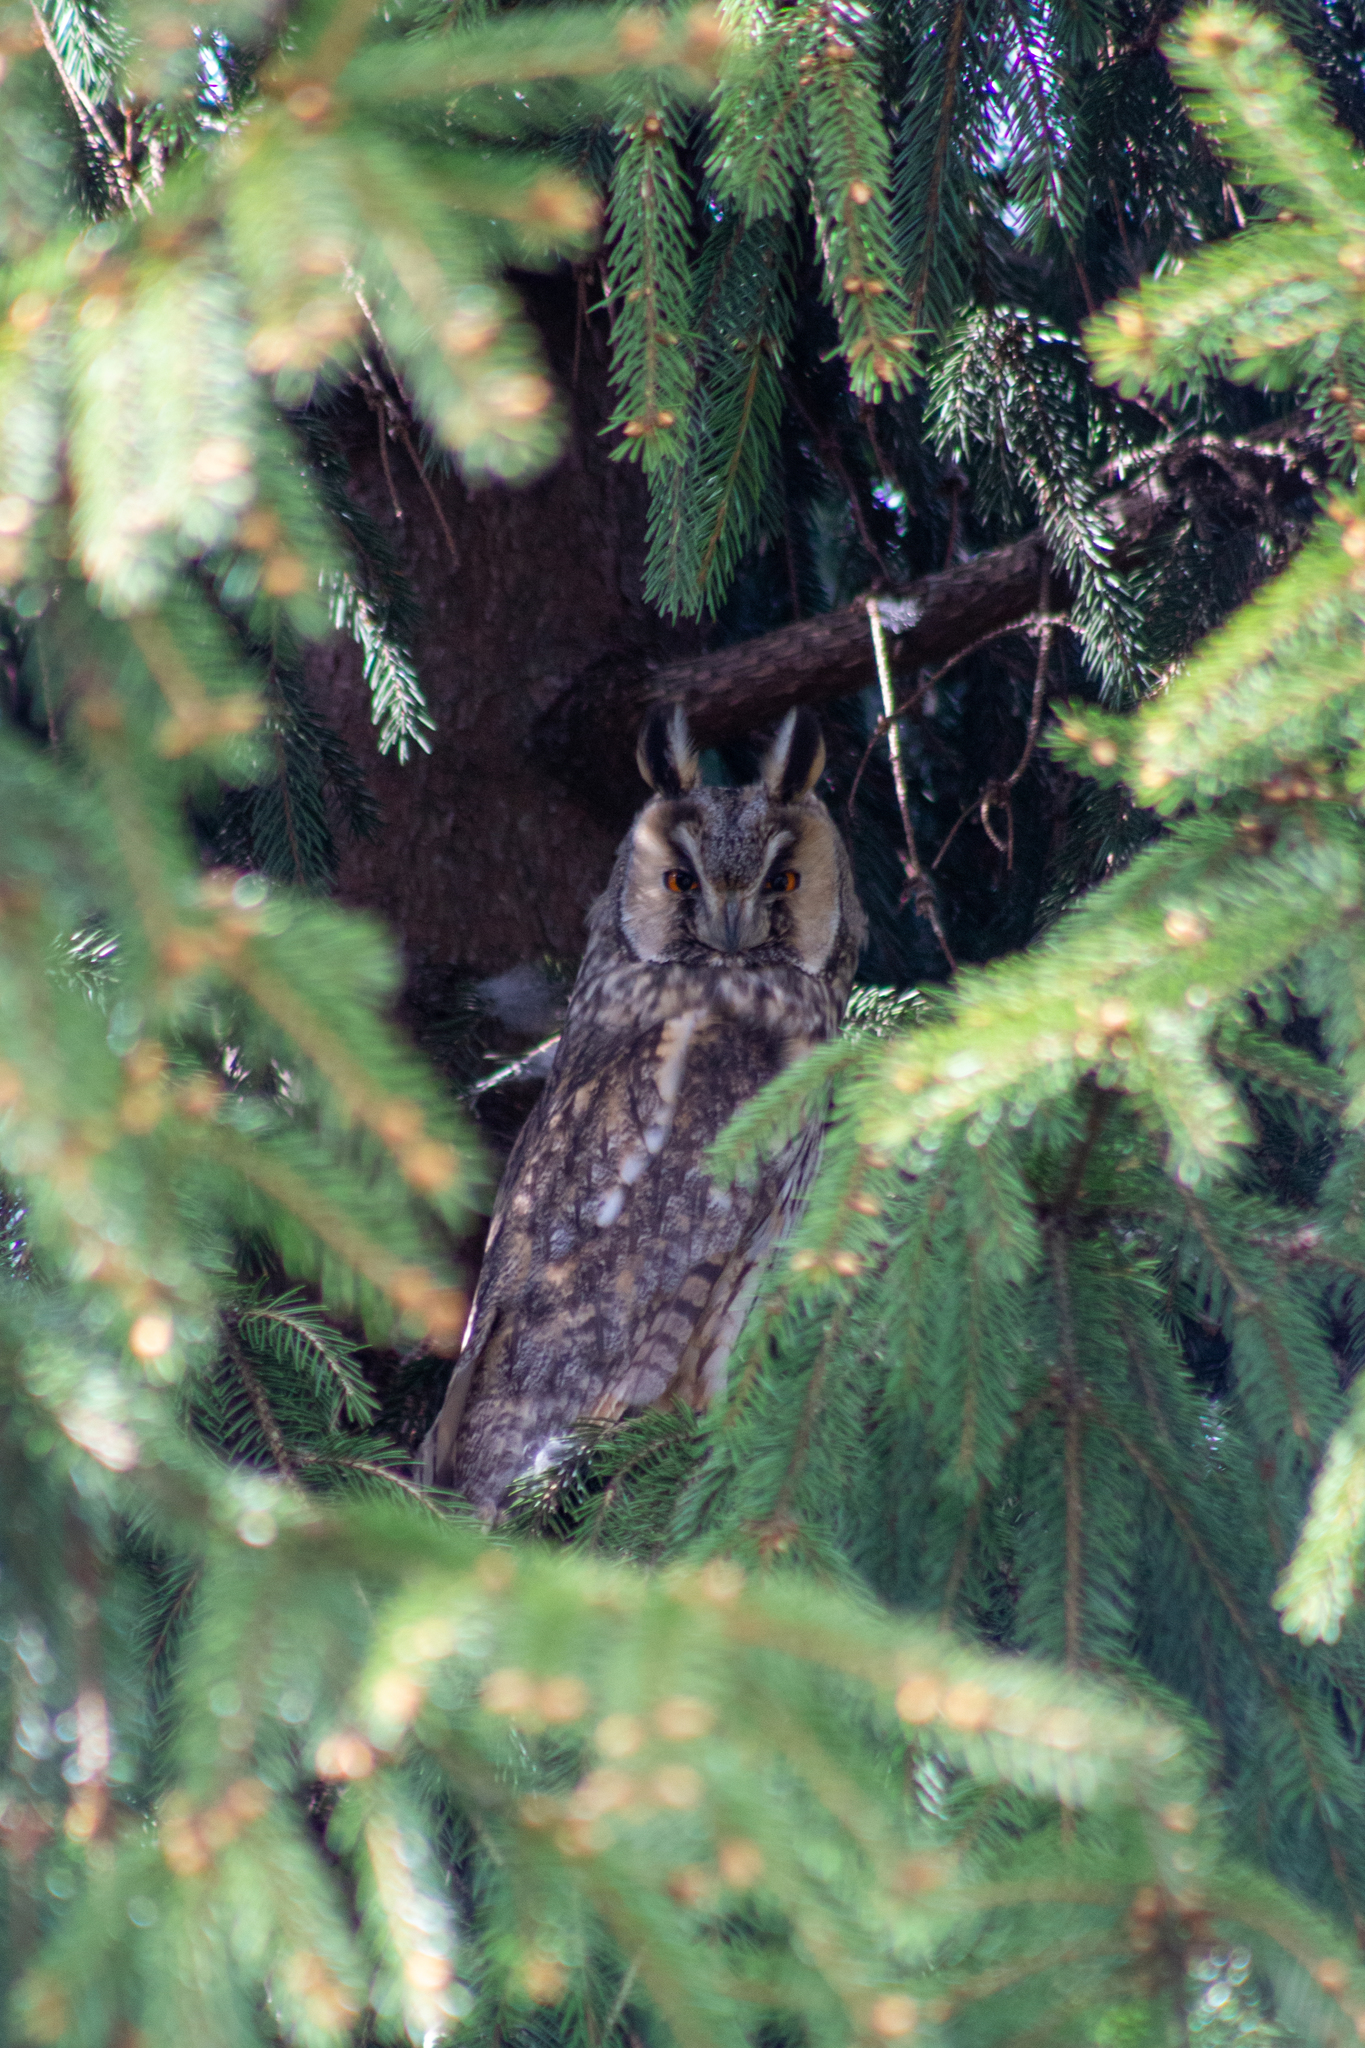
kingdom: Animalia
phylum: Chordata
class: Aves
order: Strigiformes
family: Strigidae
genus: Asio
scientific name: Asio otus
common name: Long-eared owl
